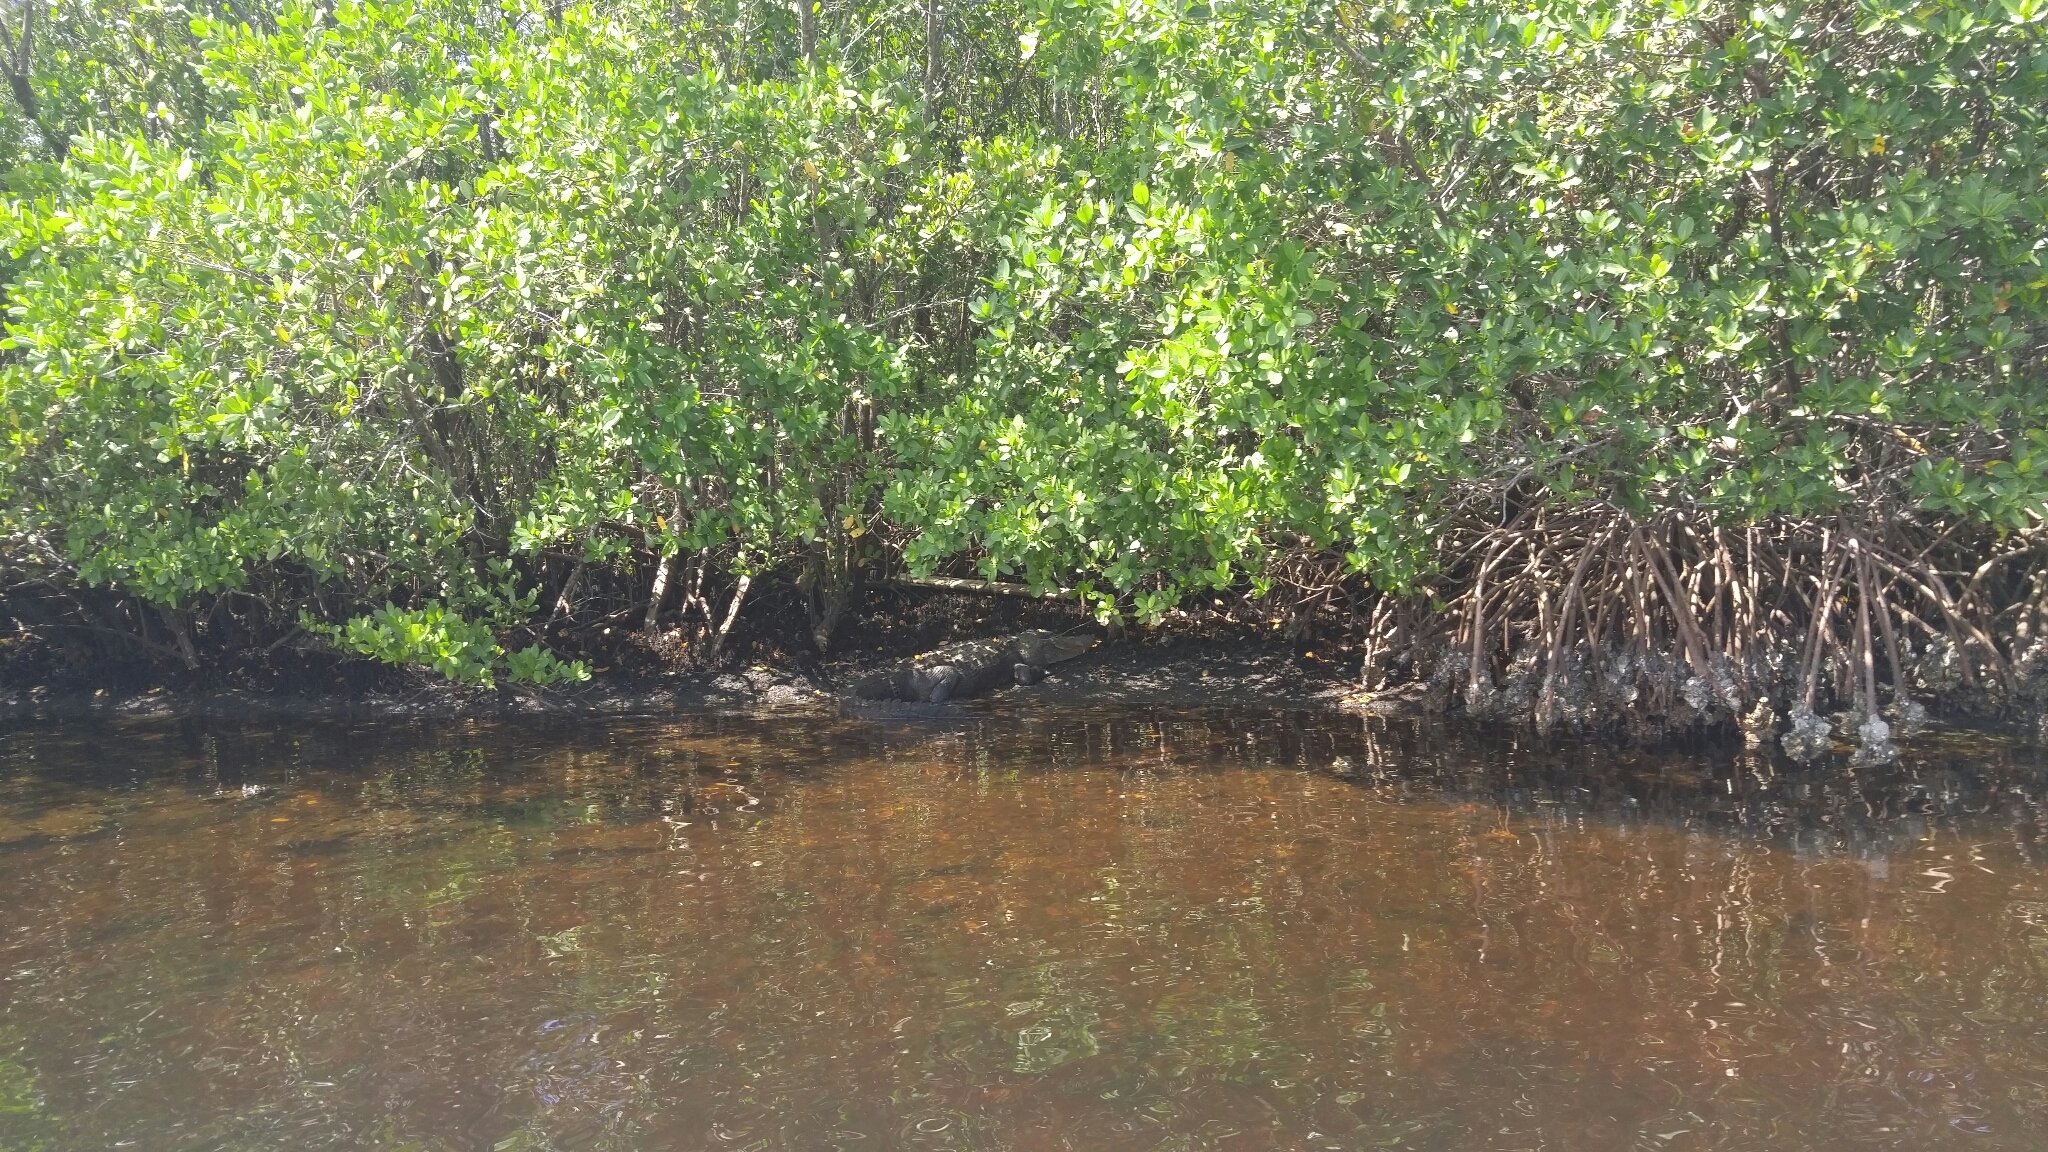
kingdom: Animalia
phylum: Chordata
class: Crocodylia
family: Alligatoridae
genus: Alligator
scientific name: Alligator mississippiensis
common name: American alligator
